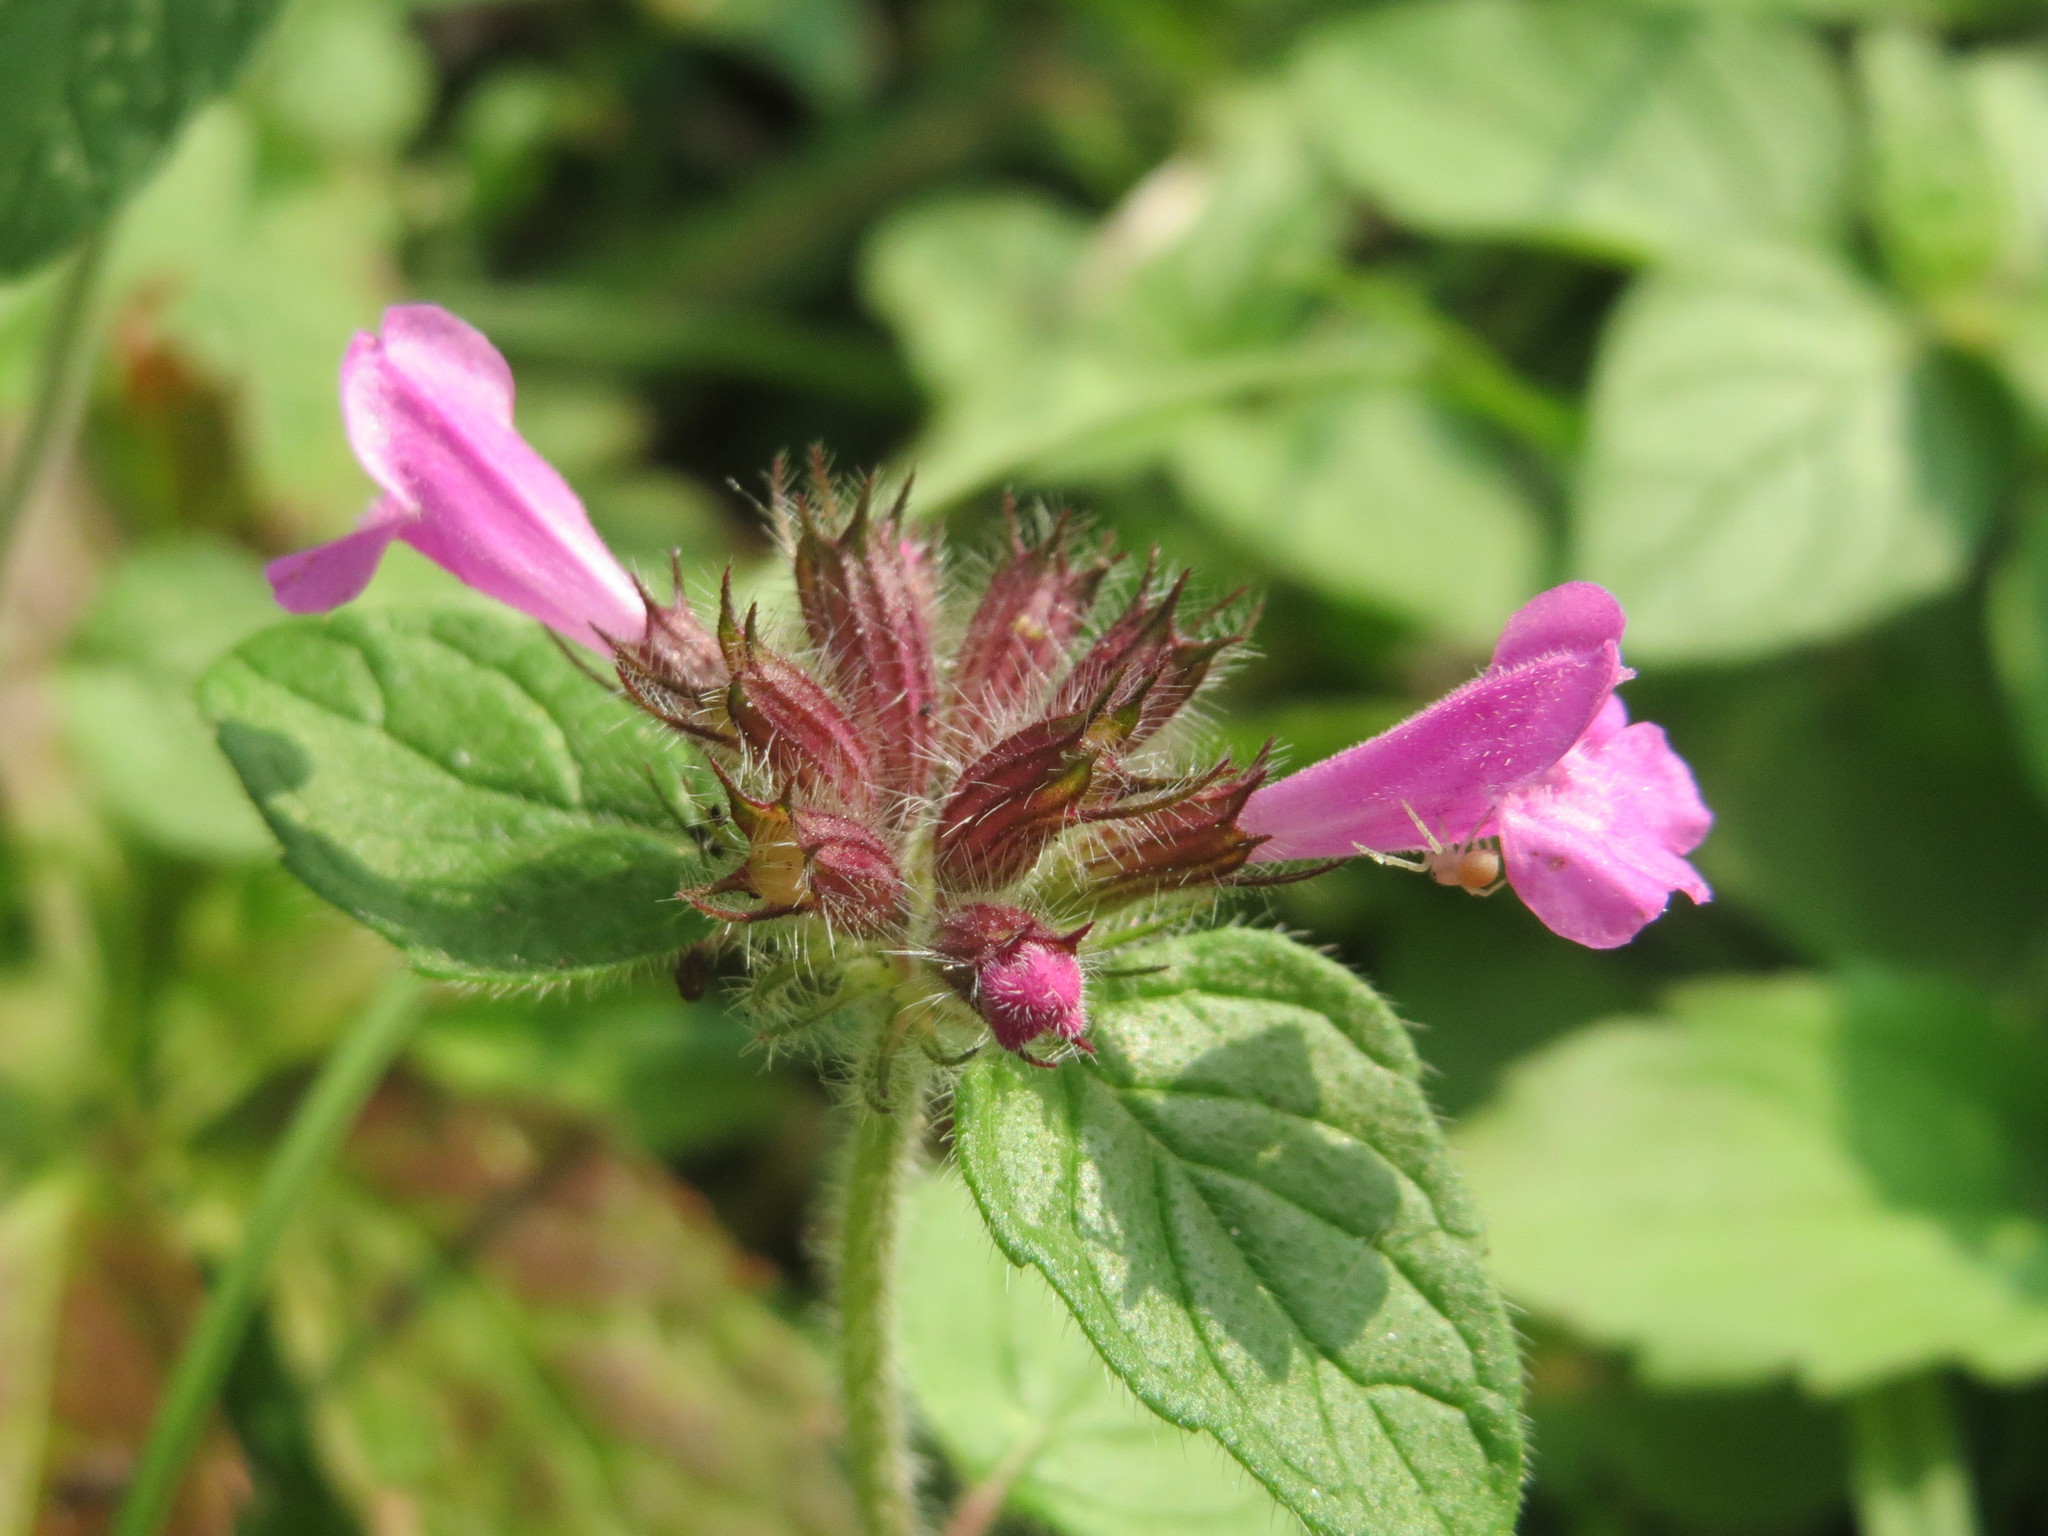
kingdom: Plantae
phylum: Tracheophyta
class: Magnoliopsida
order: Lamiales
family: Lamiaceae
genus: Clinopodium
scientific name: Clinopodium vulgare
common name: Wild basil
